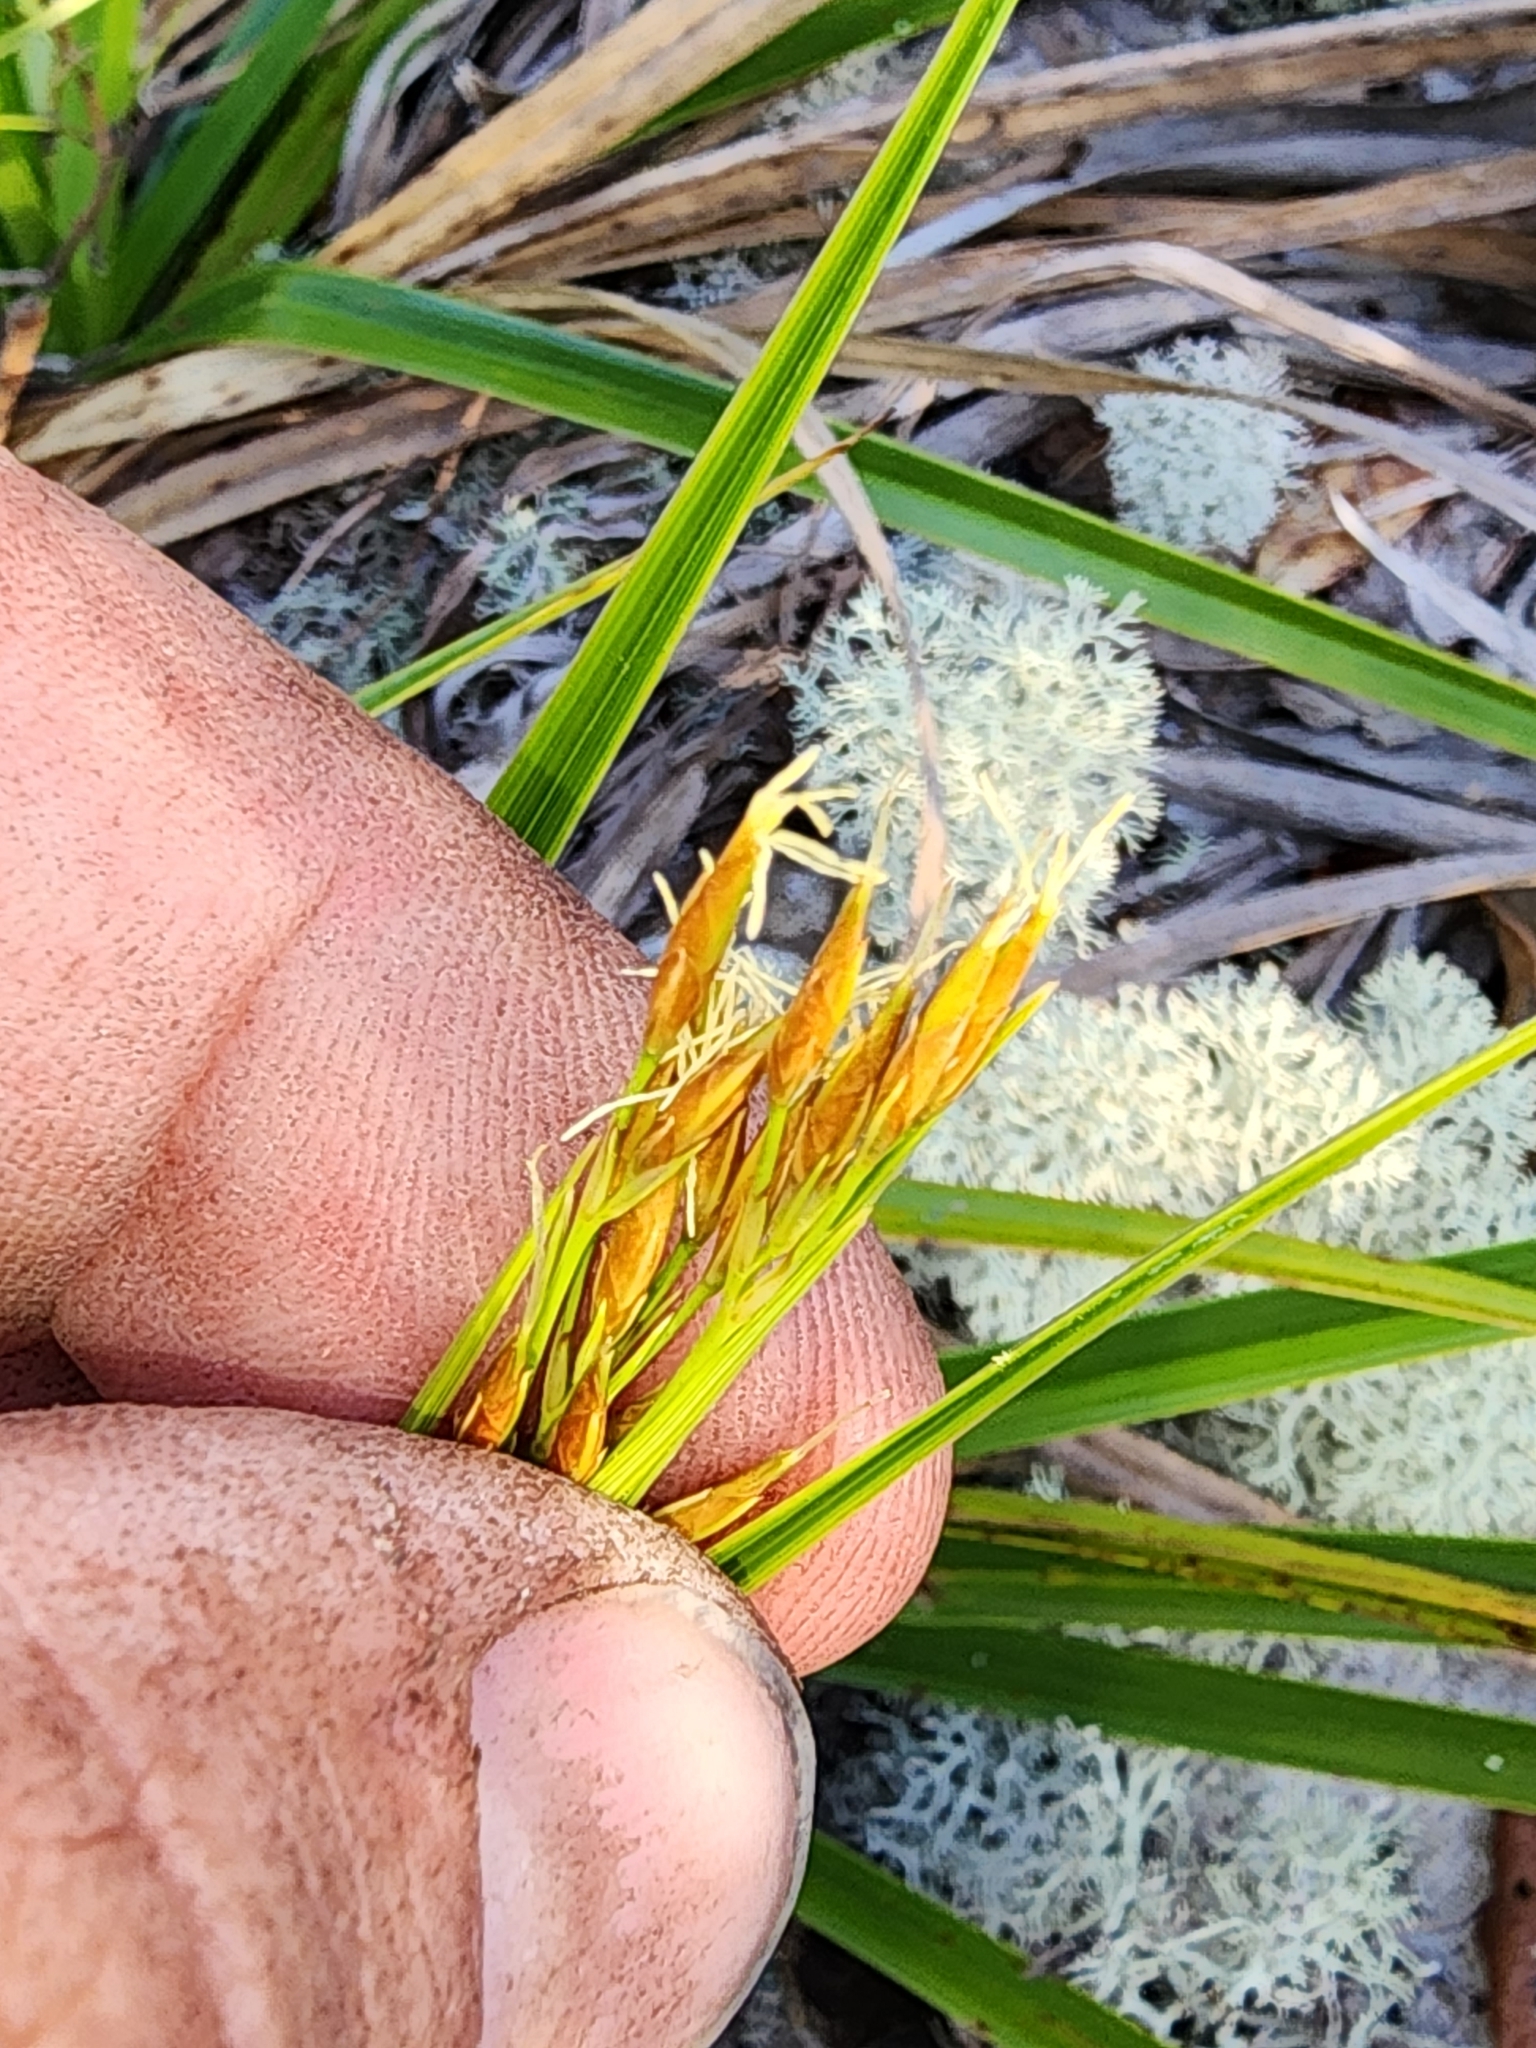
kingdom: Plantae
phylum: Tracheophyta
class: Liliopsida
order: Poales
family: Cyperaceae
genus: Rhynchospora
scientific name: Rhynchospora megalocarpa
